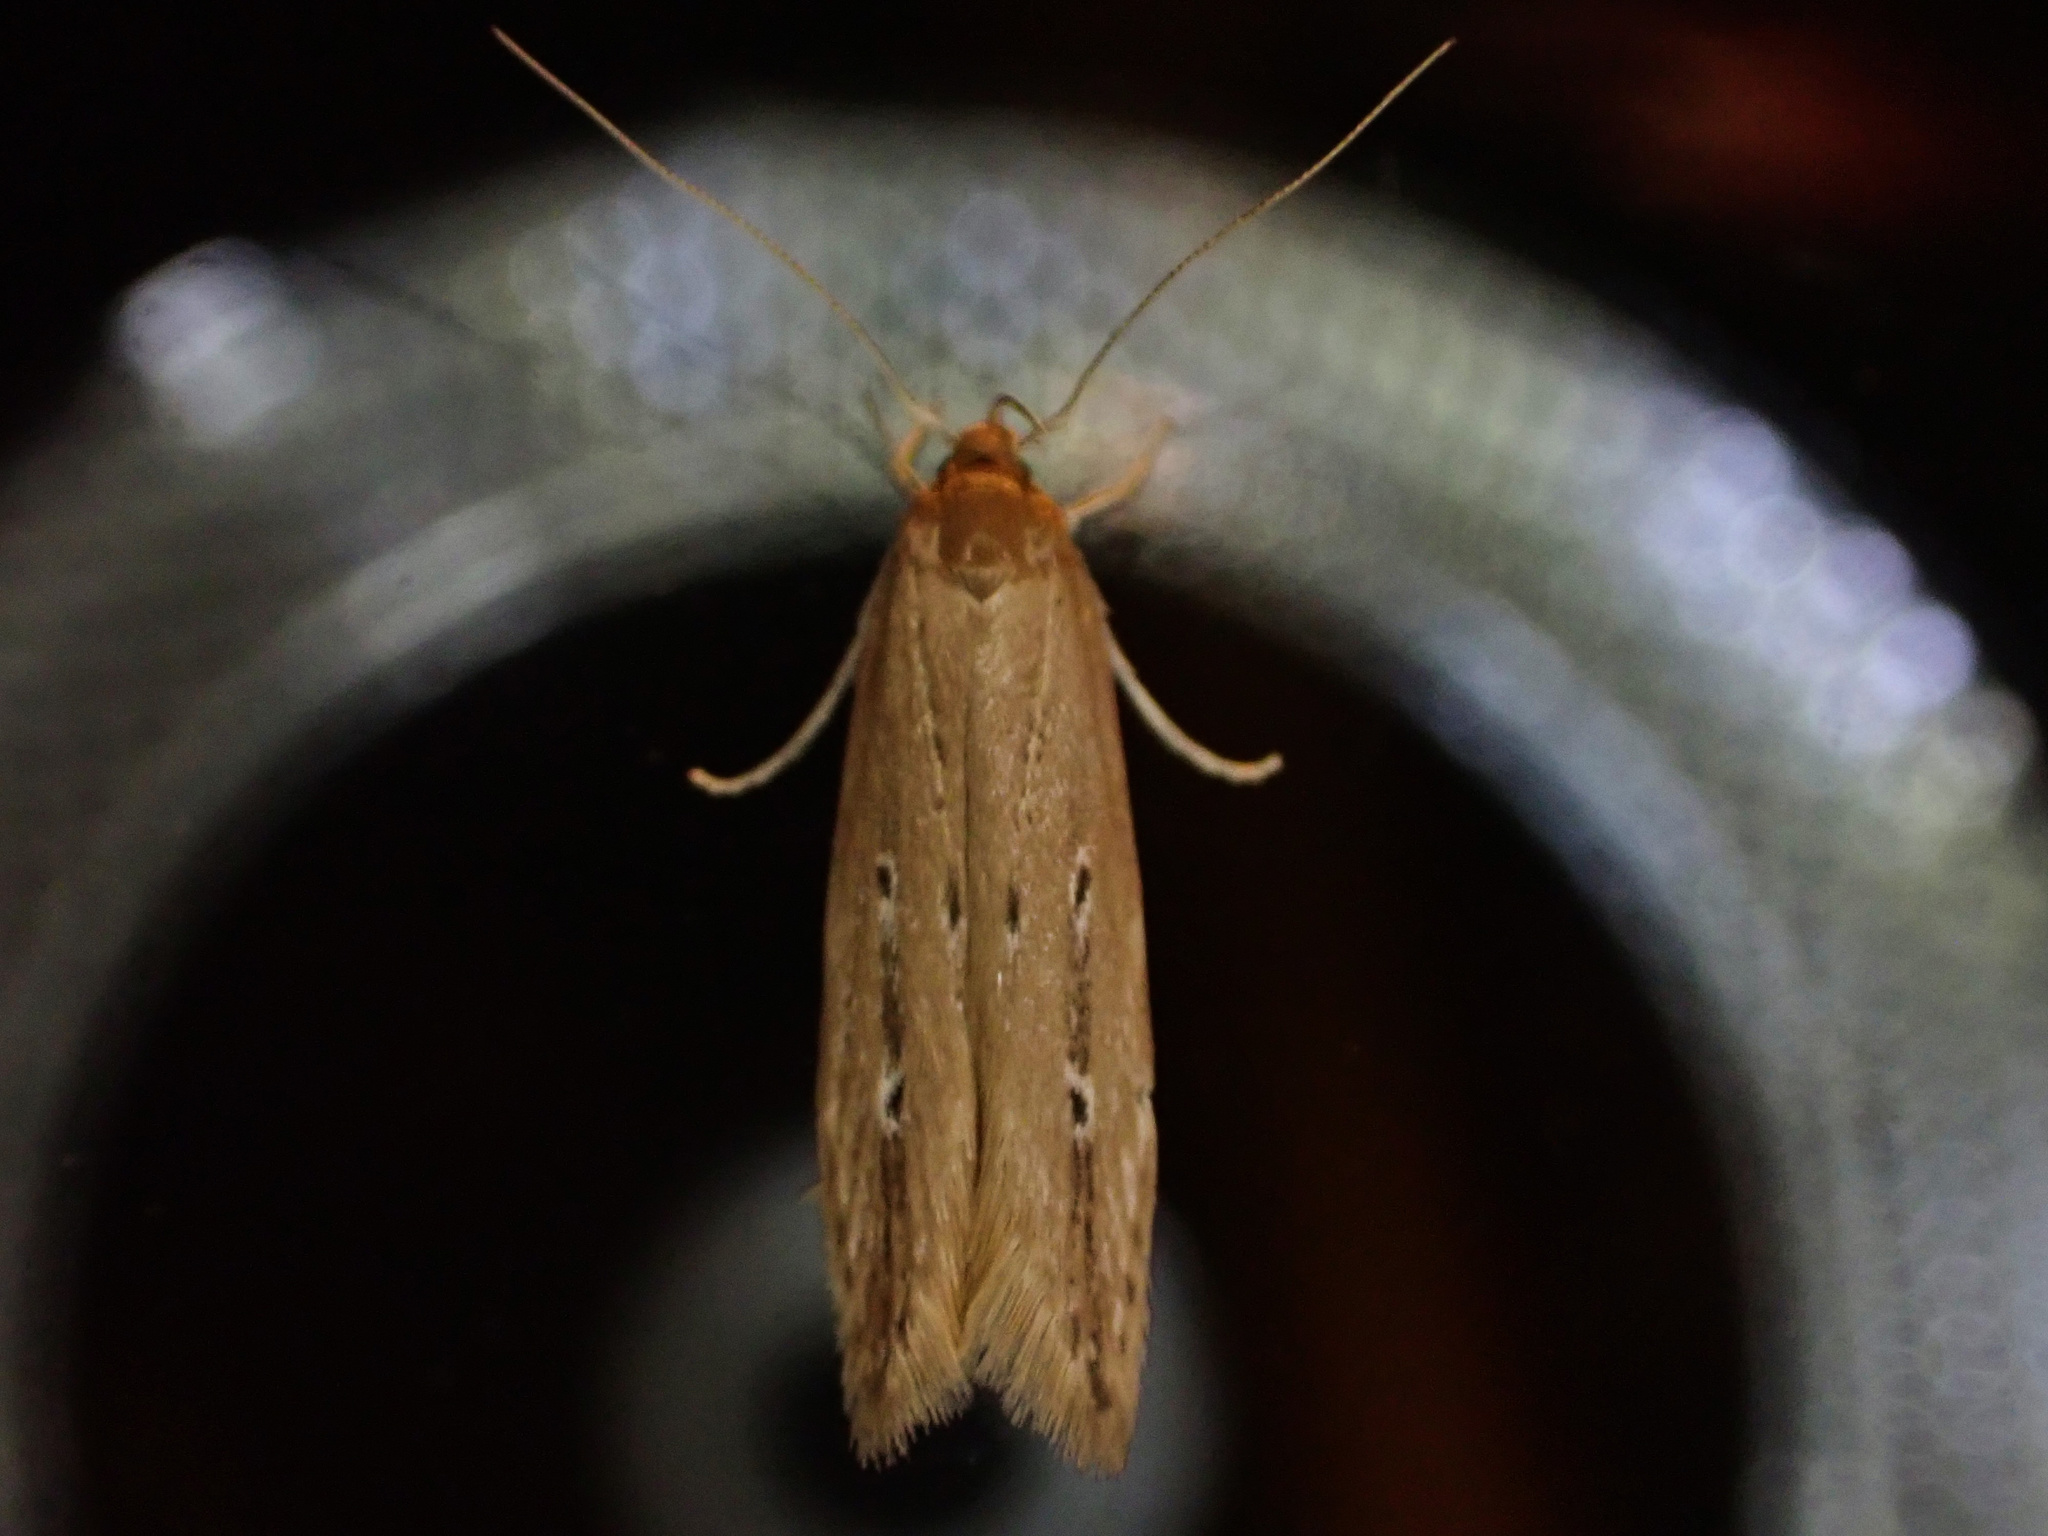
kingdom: Animalia
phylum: Arthropoda
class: Insecta
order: Lepidoptera
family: Cosmopterigidae
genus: Limnaecia
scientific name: Limnaecia phragmitella
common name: Bulrush cosmet
